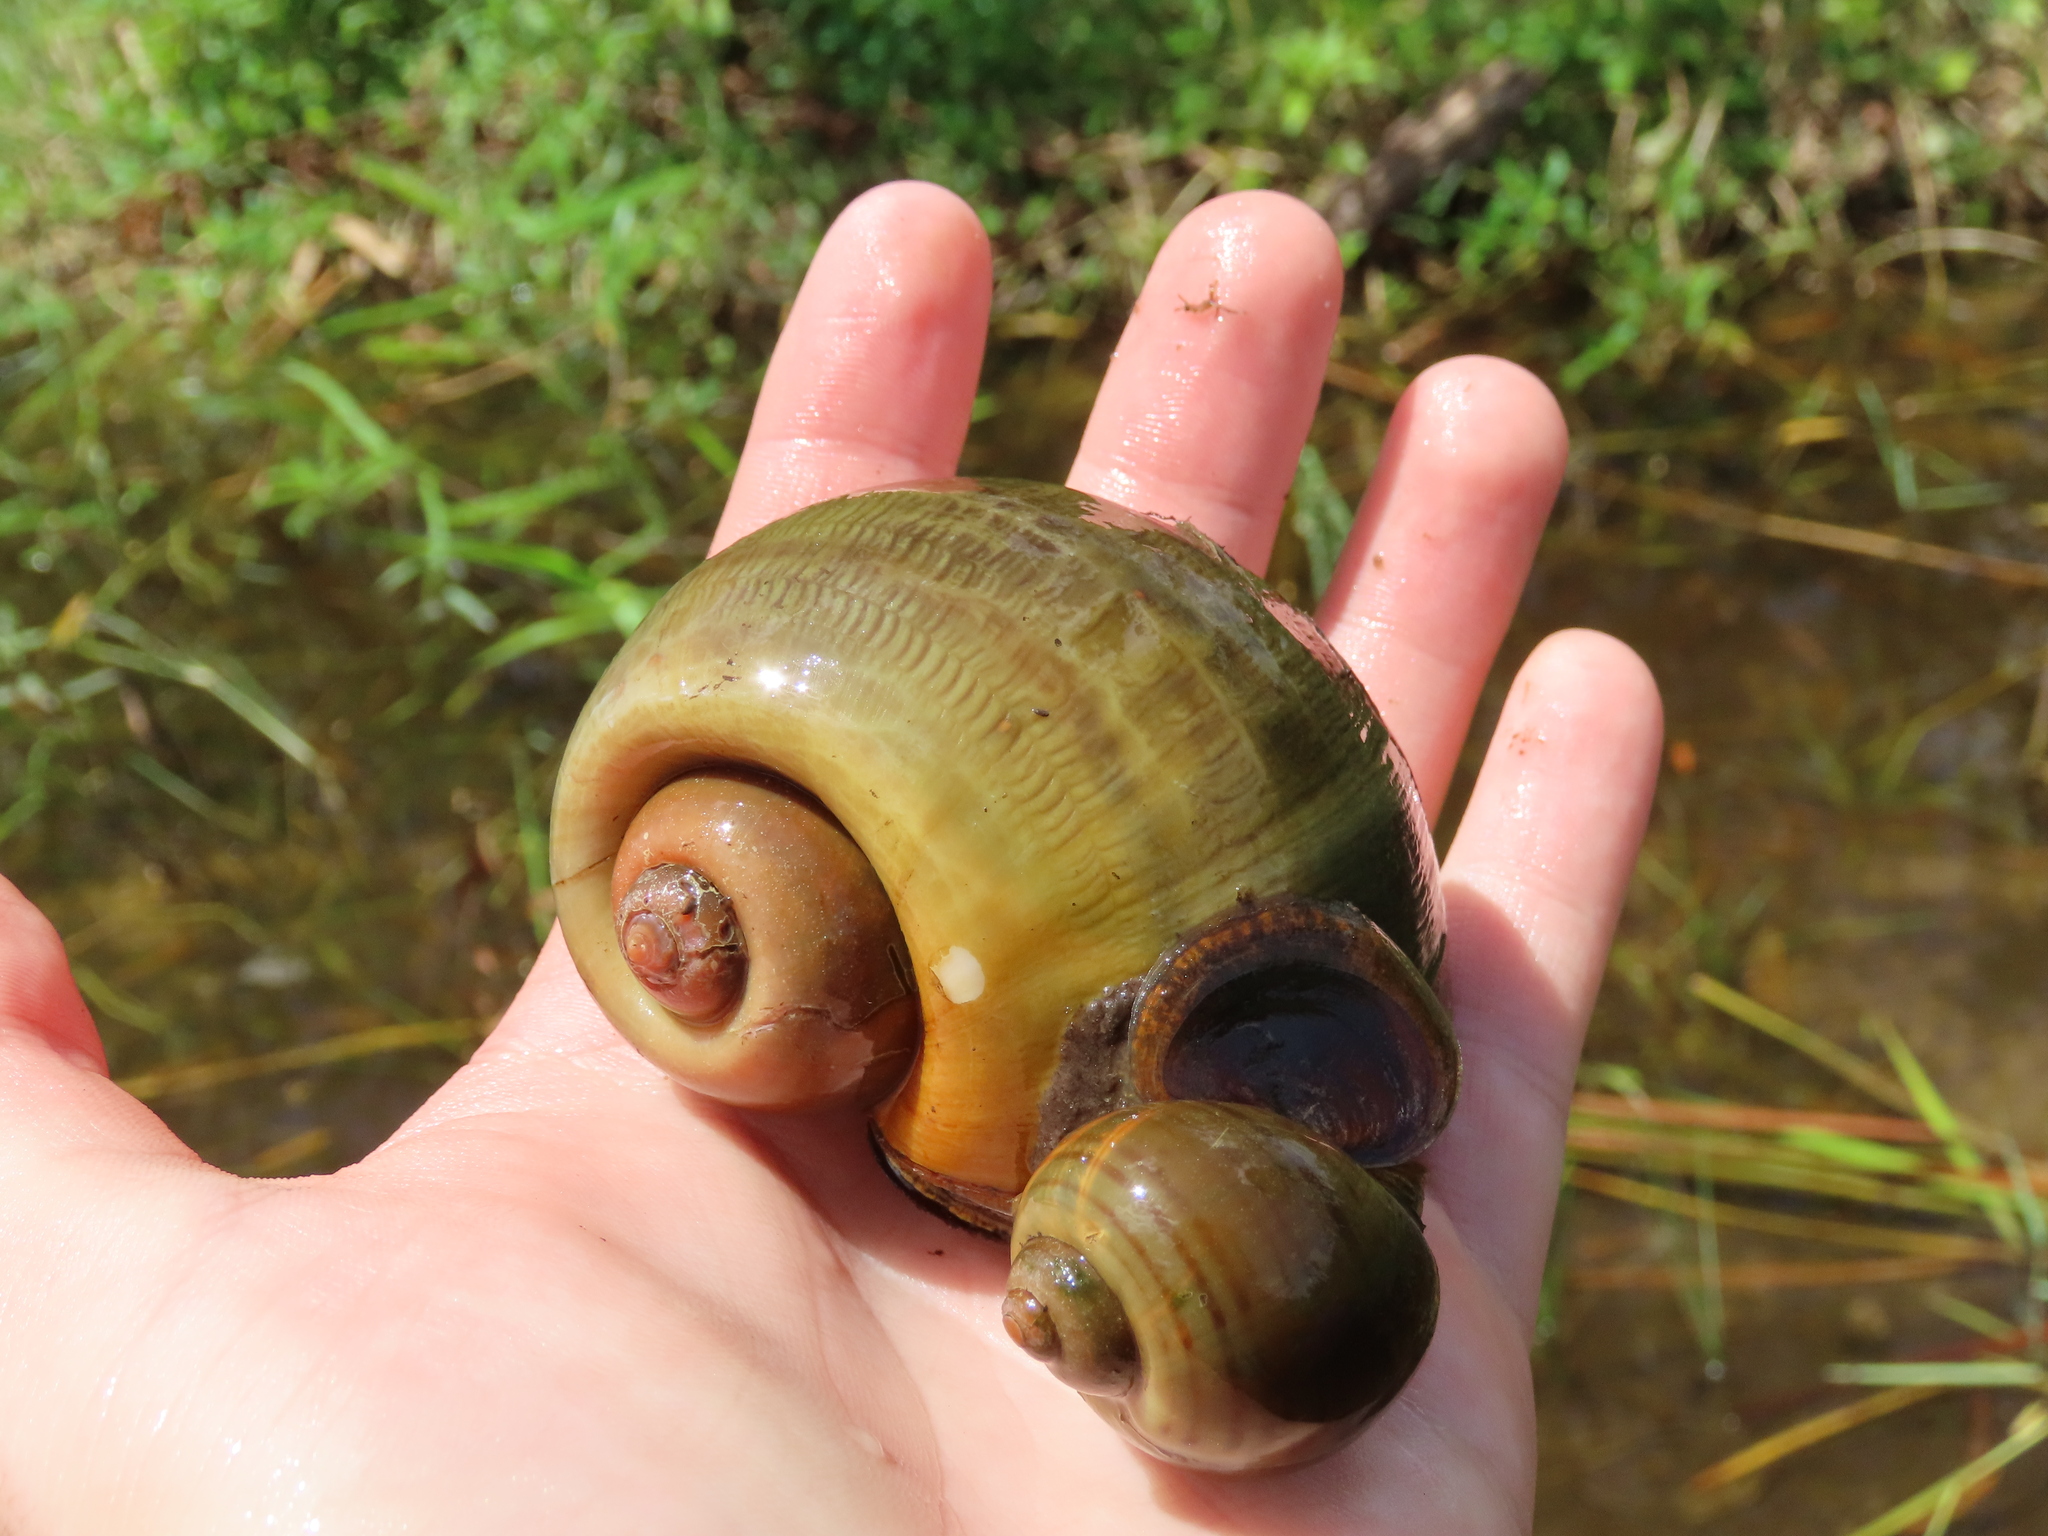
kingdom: Animalia
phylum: Mollusca
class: Gastropoda
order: Architaenioglossa
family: Ampullariidae
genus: Pomacea
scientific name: Pomacea maculata
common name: Giant applesnail
